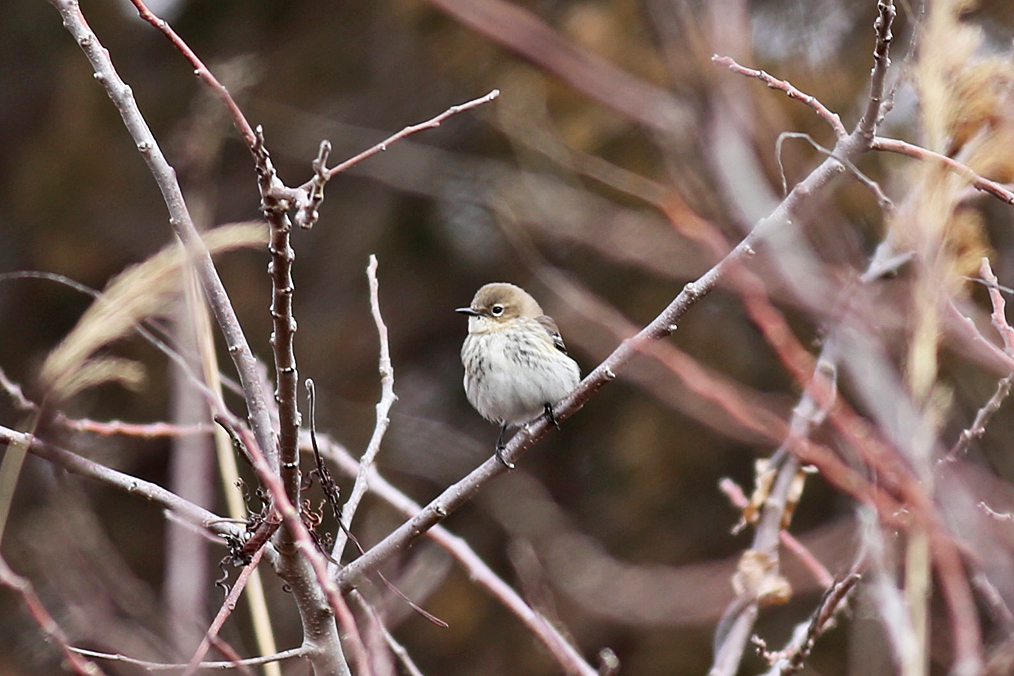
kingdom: Animalia
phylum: Chordata
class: Aves
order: Passeriformes
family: Parulidae
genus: Setophaga
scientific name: Setophaga coronata
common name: Myrtle warbler
